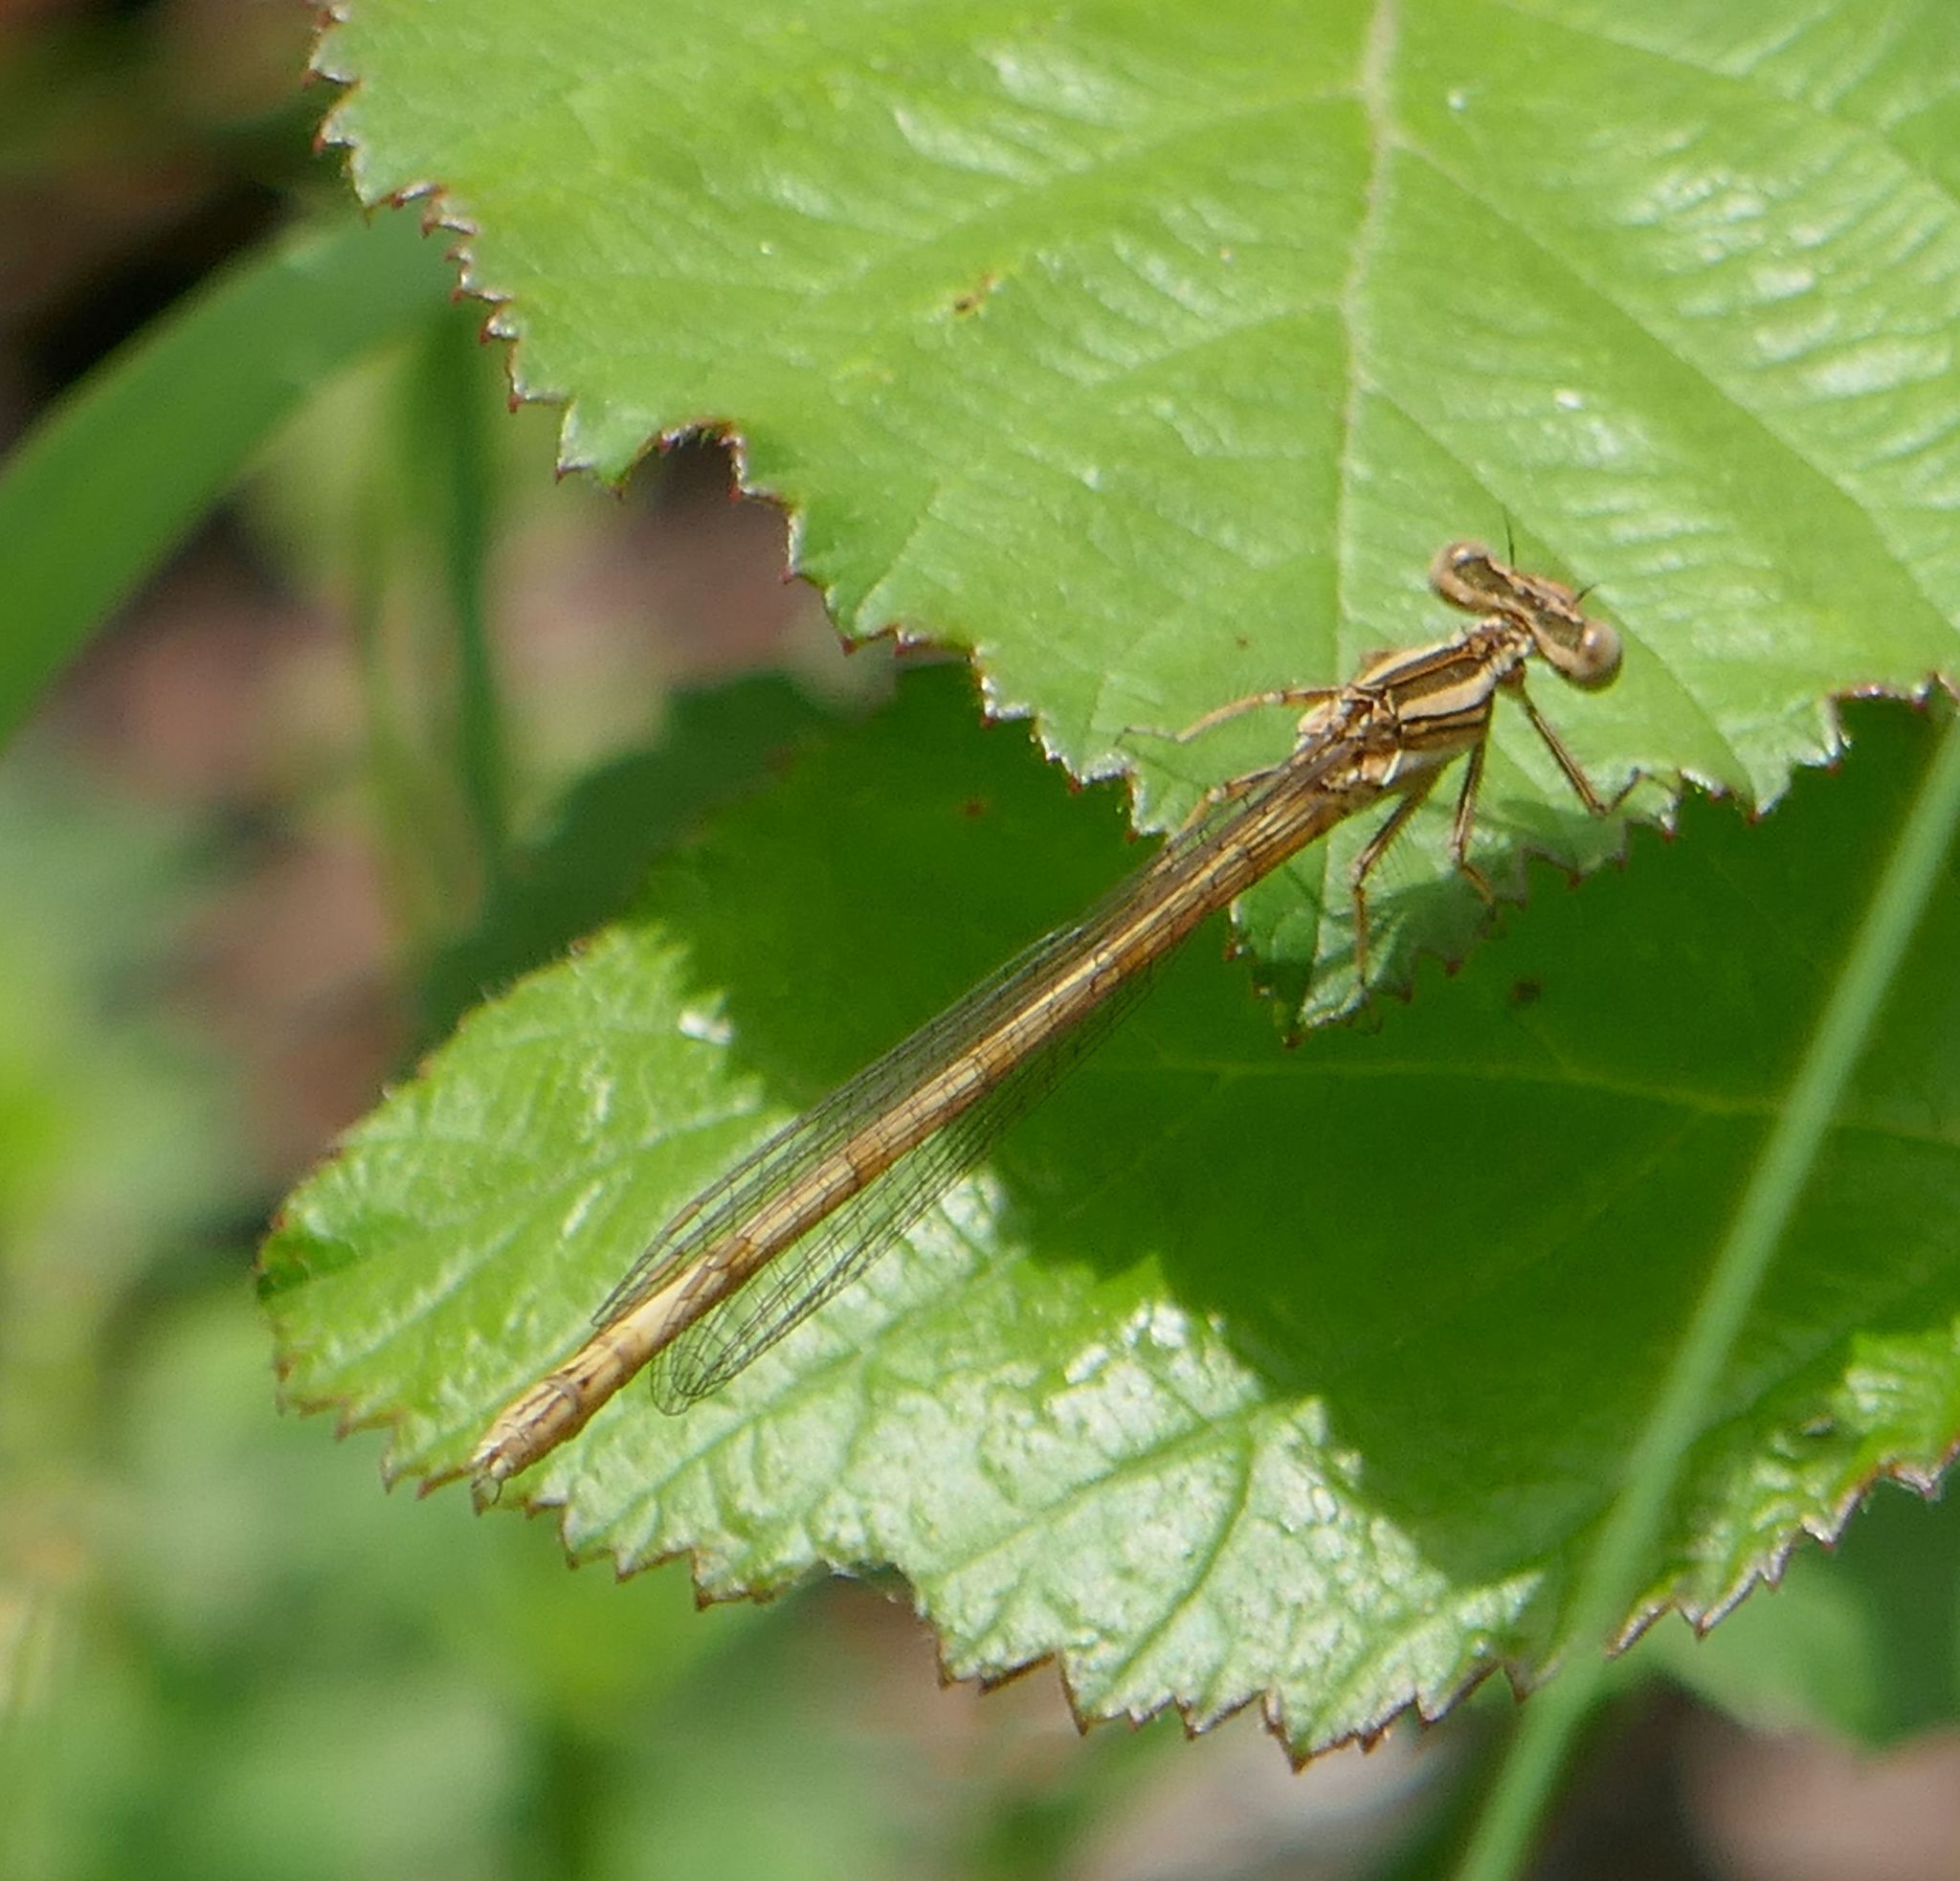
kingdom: Animalia
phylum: Arthropoda
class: Insecta
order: Odonata
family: Platycnemididae
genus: Platycnemis
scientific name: Platycnemis acutipennis
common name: Orange featherleg
